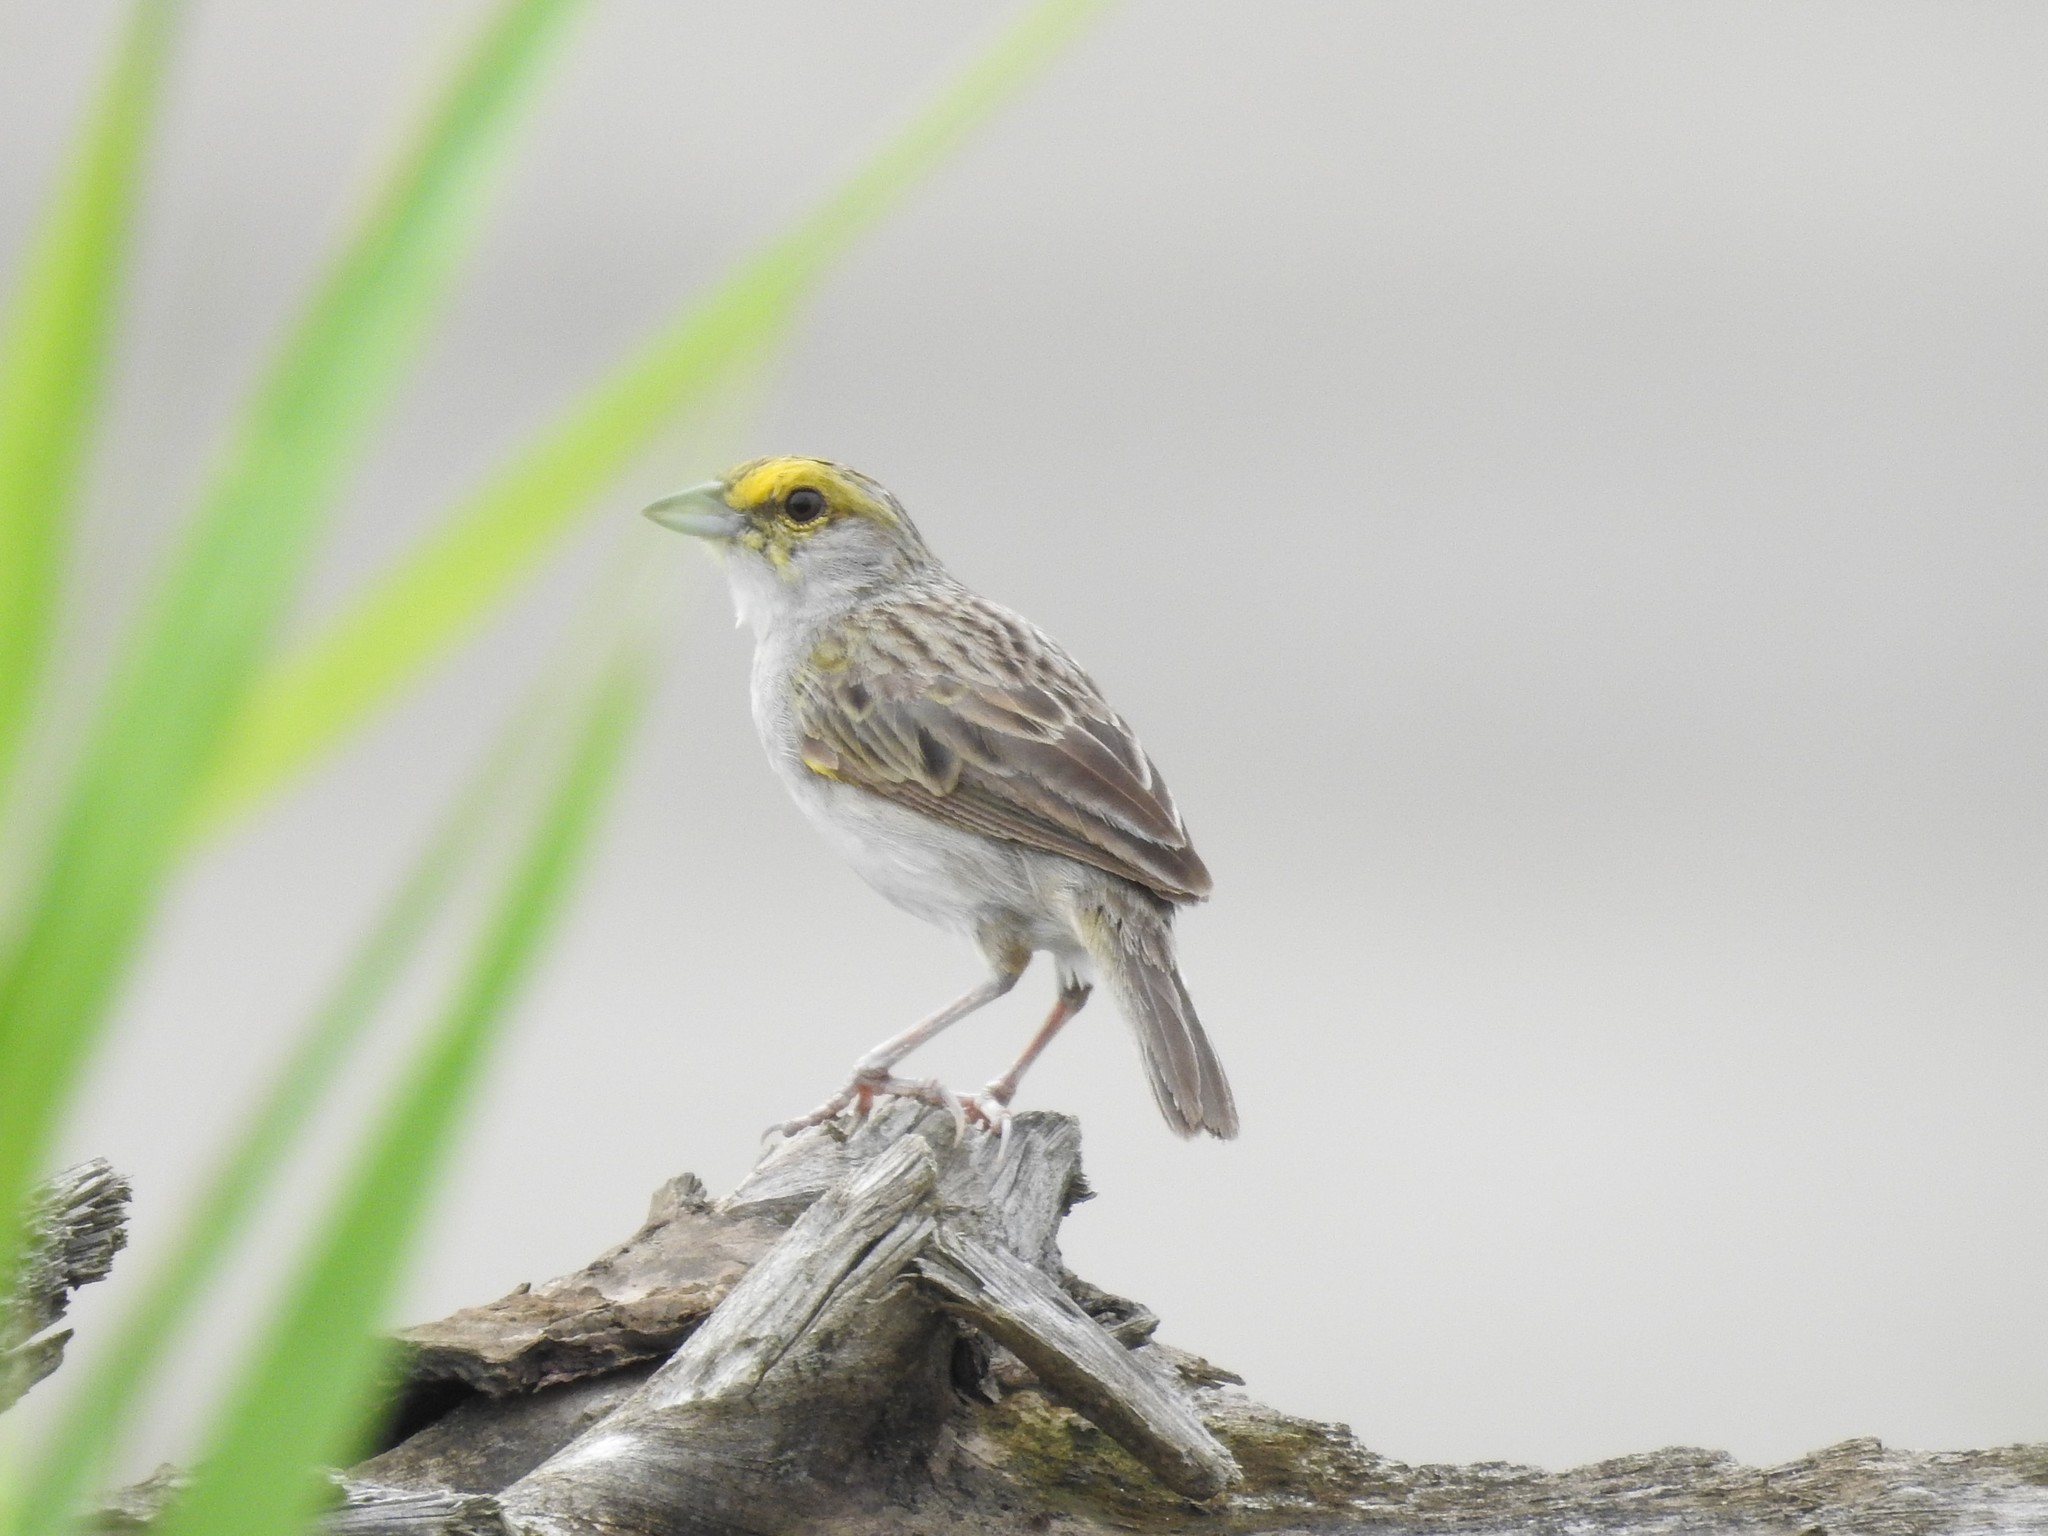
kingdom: Animalia
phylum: Chordata
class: Aves
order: Passeriformes
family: Passerellidae
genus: Ammodramus
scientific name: Ammodramus aurifrons
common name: Yellow-browed sparrow
